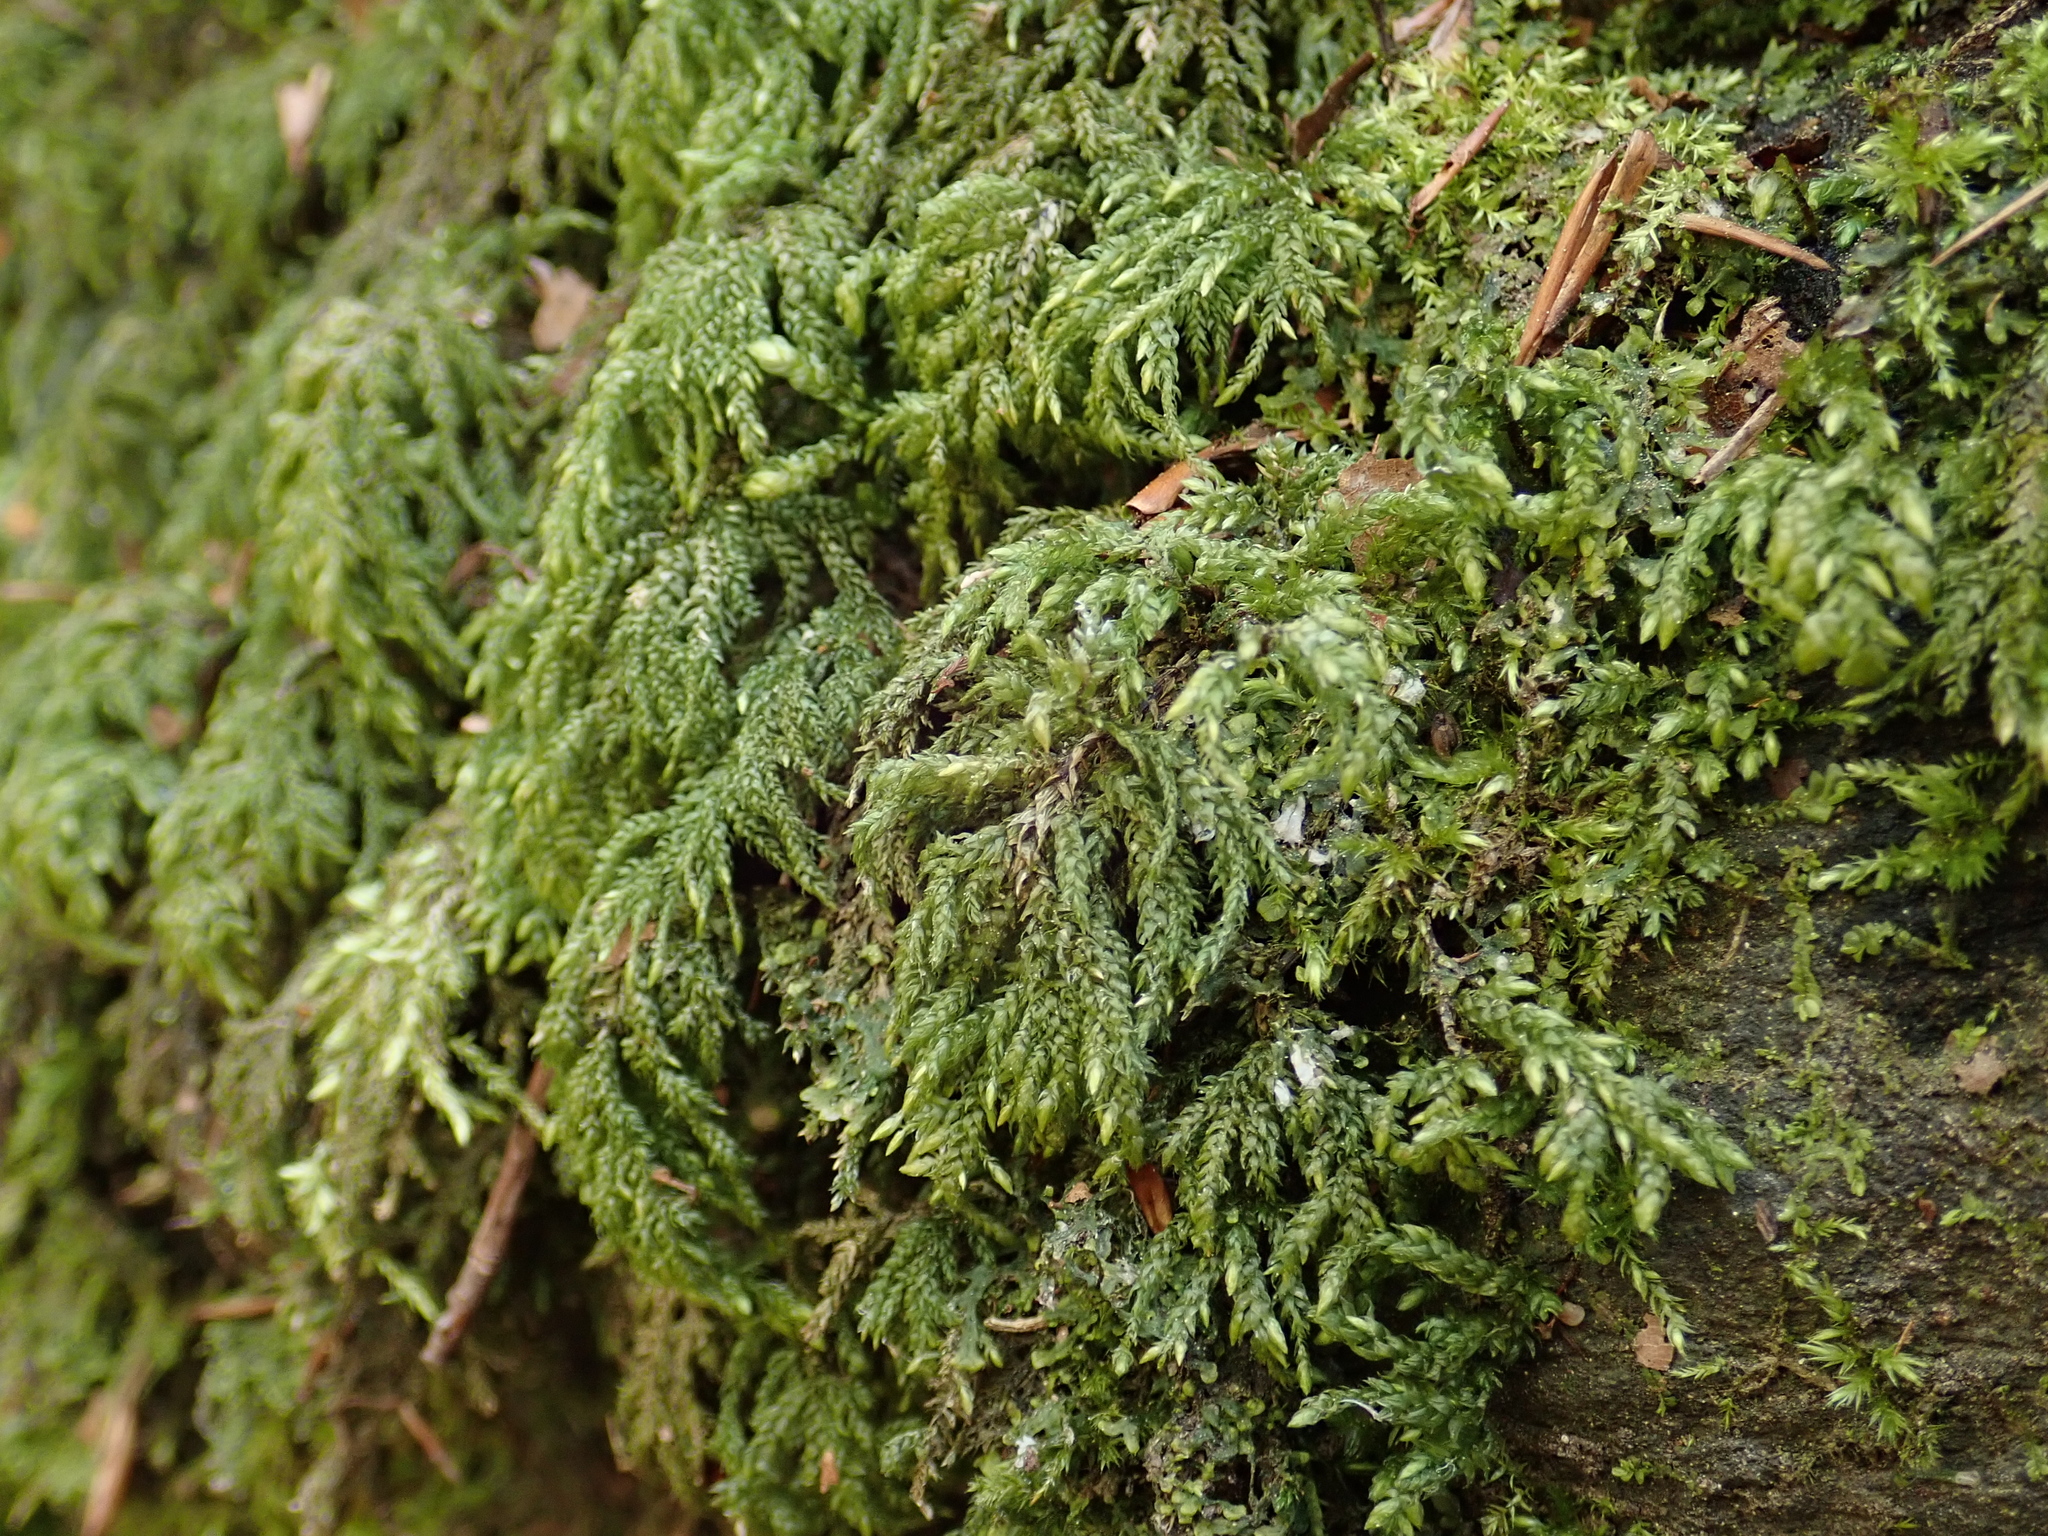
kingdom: Plantae
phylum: Bryophyta
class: Bryopsida
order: Hypnales
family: Neckeraceae
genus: Thamnobryum
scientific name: Thamnobryum alopecurum
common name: Fox-tail feather-moss
